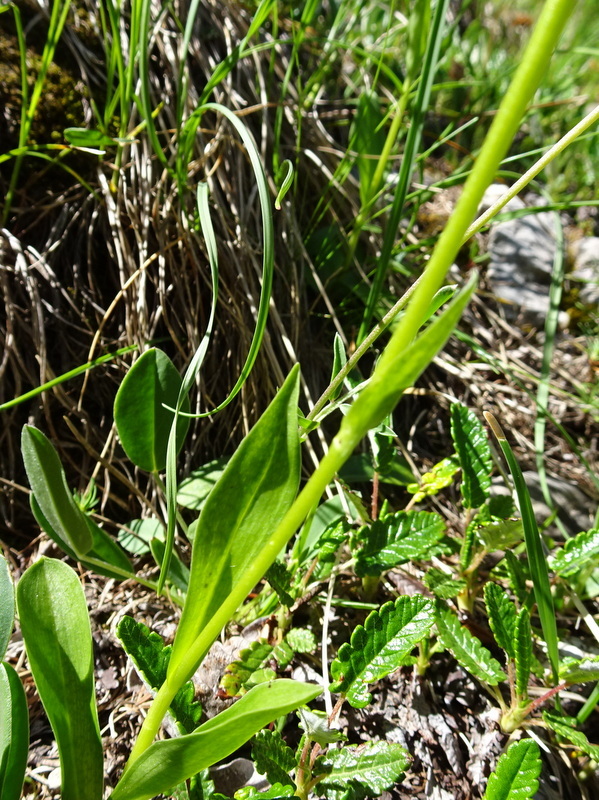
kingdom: Plantae
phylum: Tracheophyta
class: Liliopsida
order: Asparagales
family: Orchidaceae
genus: Pseudorchis
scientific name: Pseudorchis albida
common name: Small-white orchid
